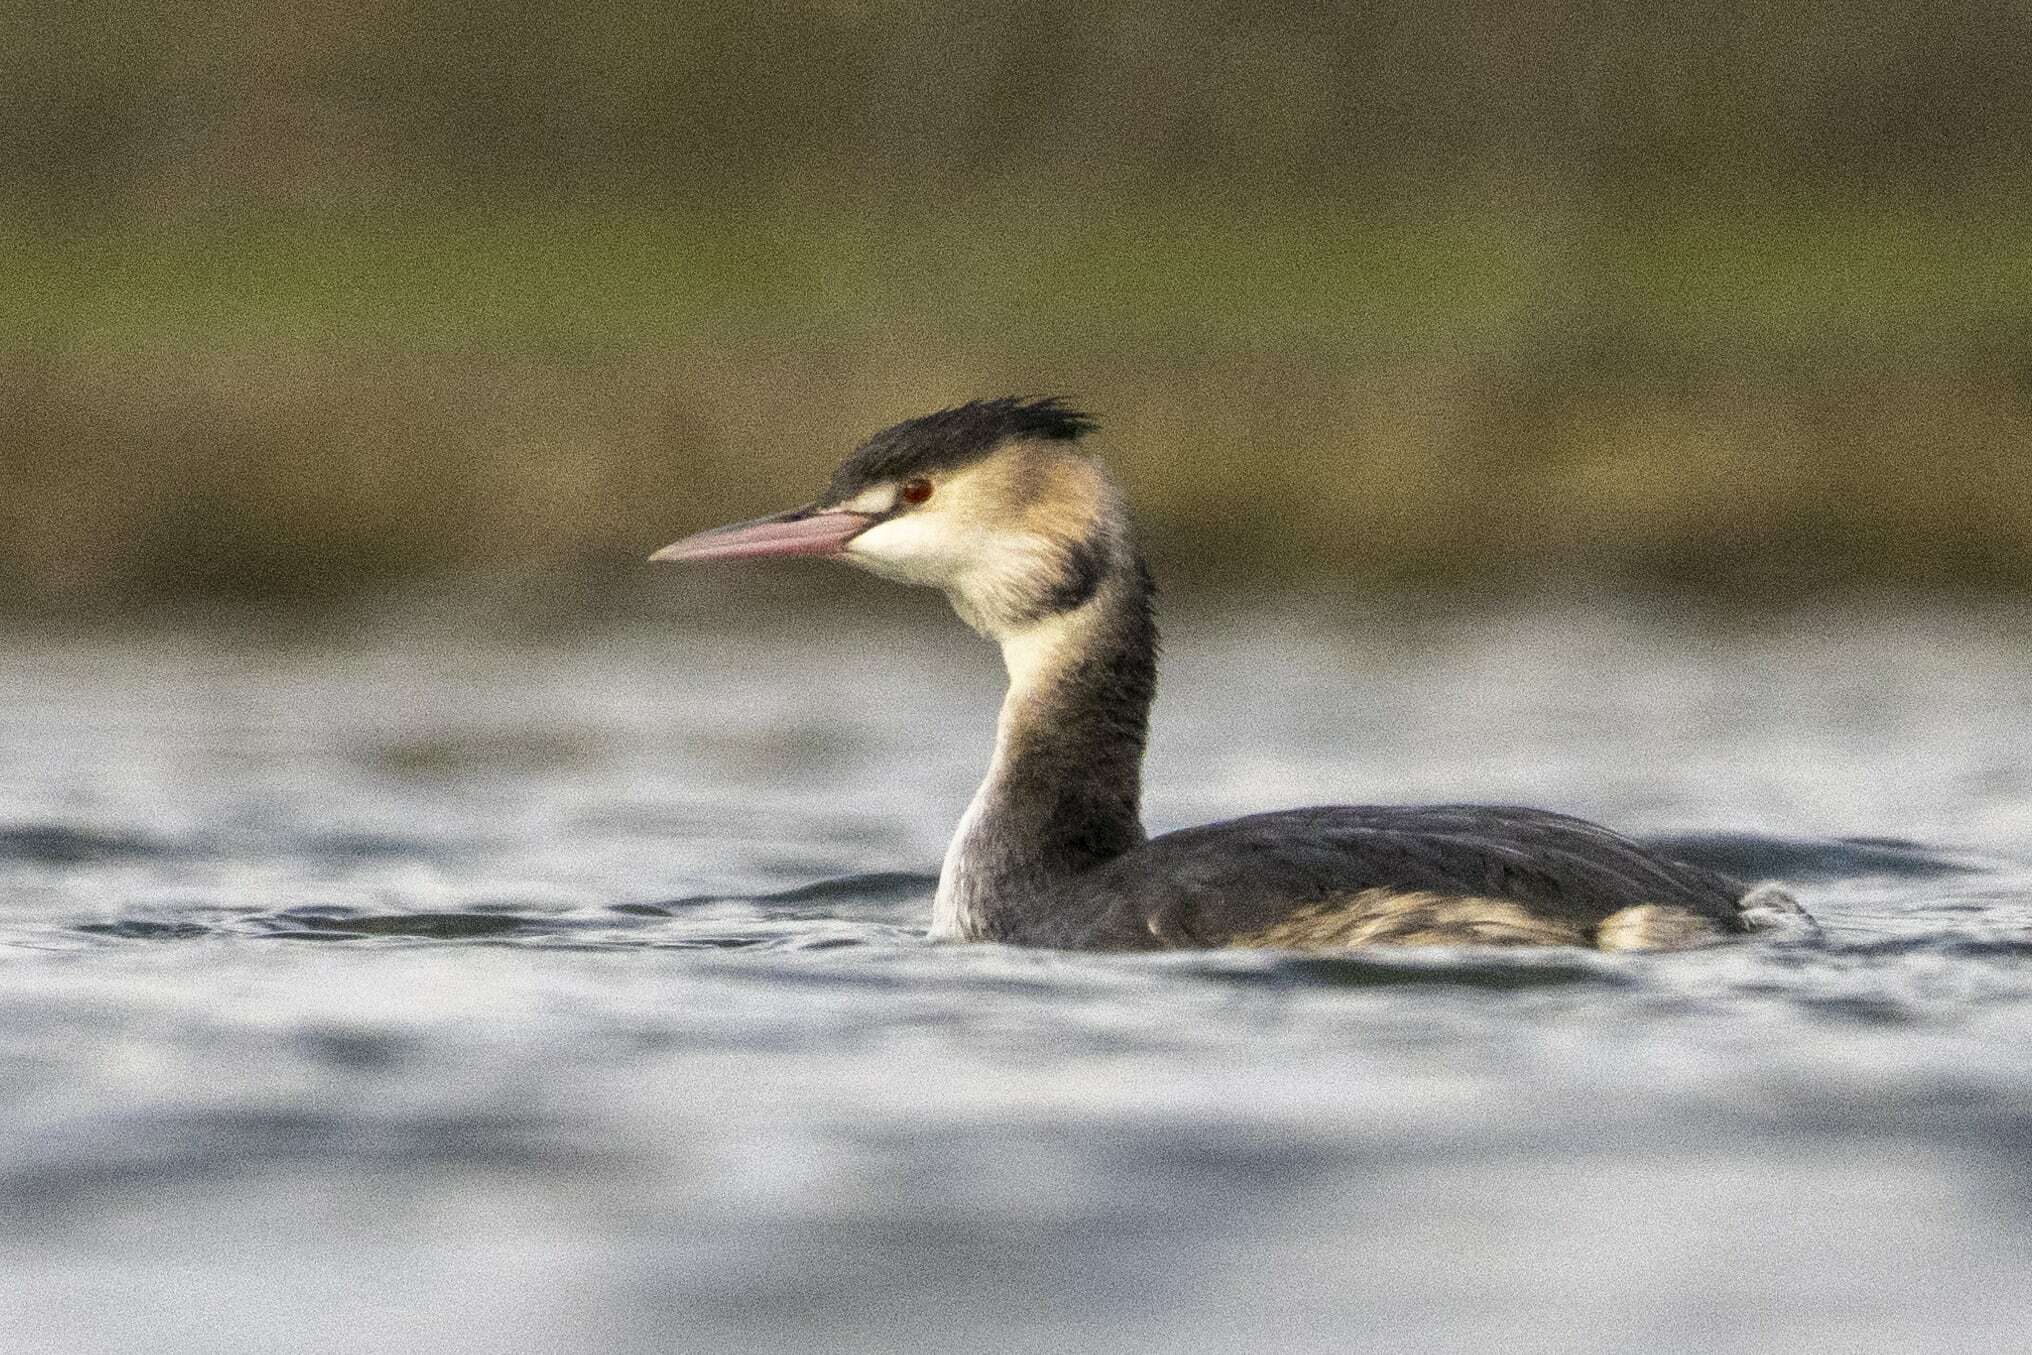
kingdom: Animalia
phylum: Chordata
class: Aves
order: Podicipediformes
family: Podicipedidae
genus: Podiceps
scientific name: Podiceps cristatus
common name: Great crested grebe
